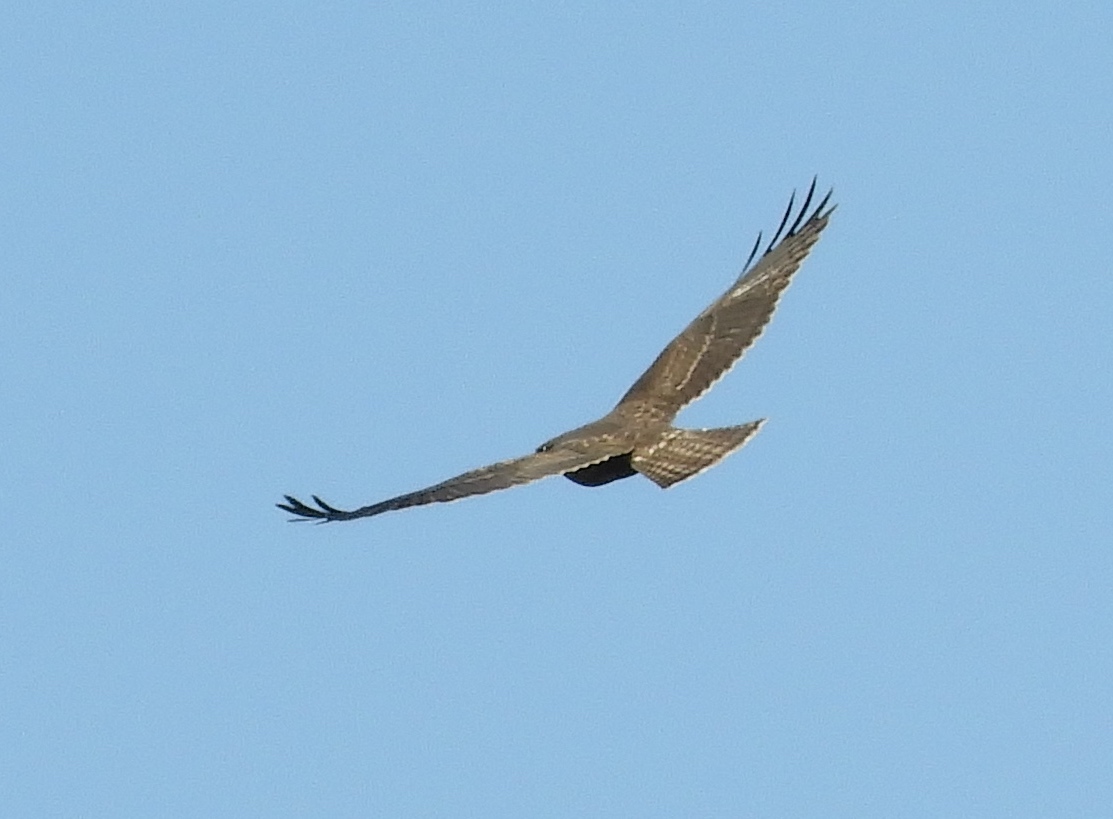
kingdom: Animalia
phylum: Chordata
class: Aves
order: Accipitriformes
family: Accipitridae
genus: Buteo
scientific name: Buteo brachyurus
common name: Short-tailed hawk
